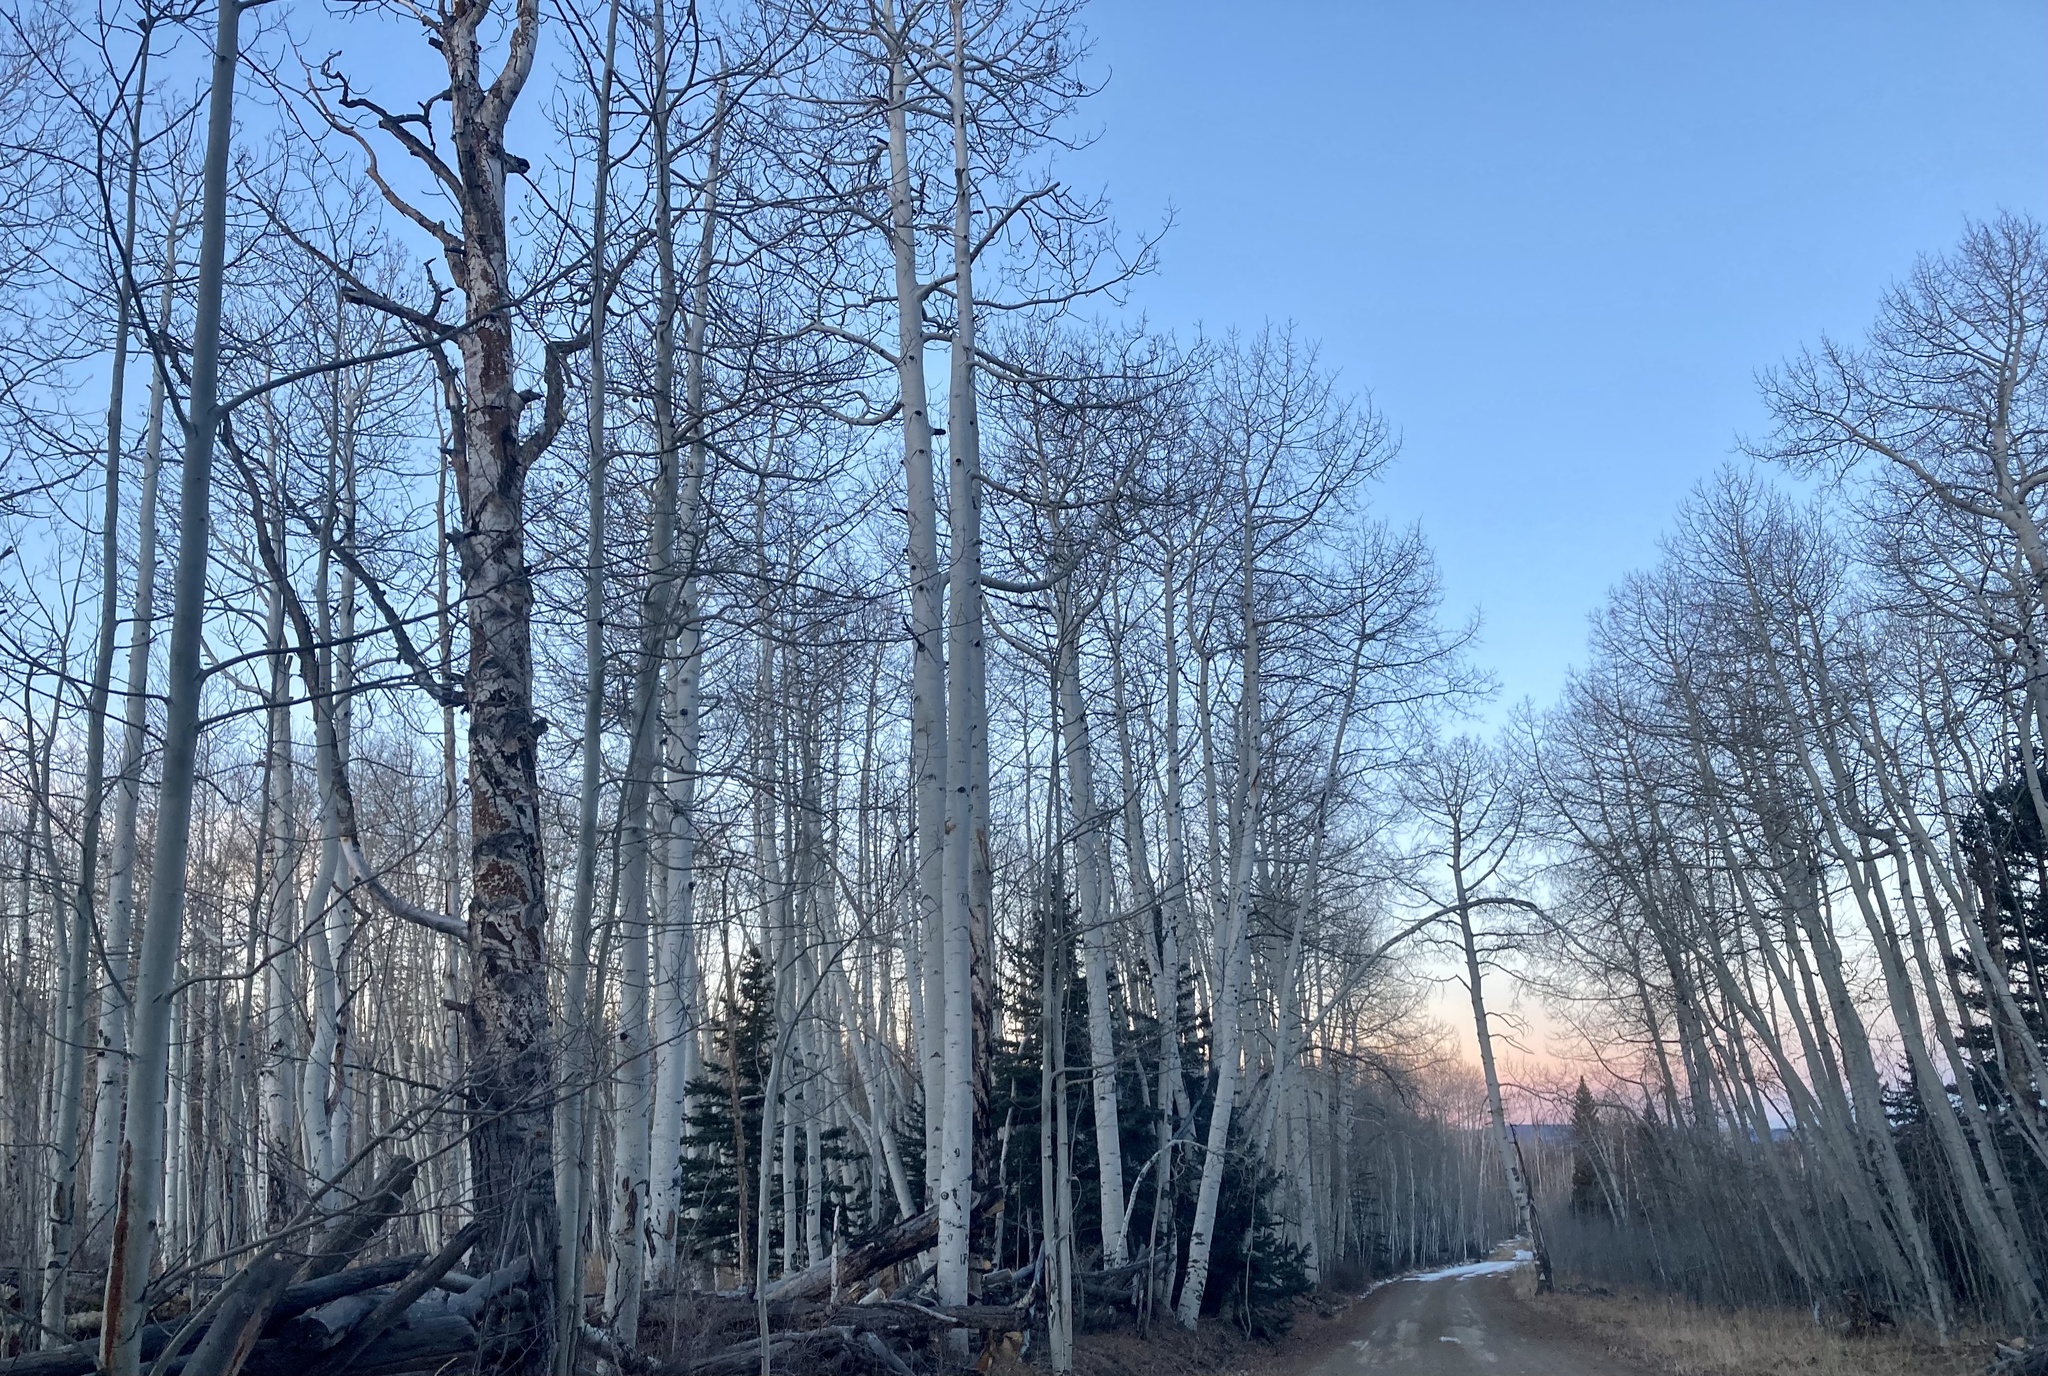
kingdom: Plantae
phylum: Tracheophyta
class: Magnoliopsida
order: Malpighiales
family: Salicaceae
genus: Populus
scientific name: Populus tremuloides
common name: Quaking aspen
